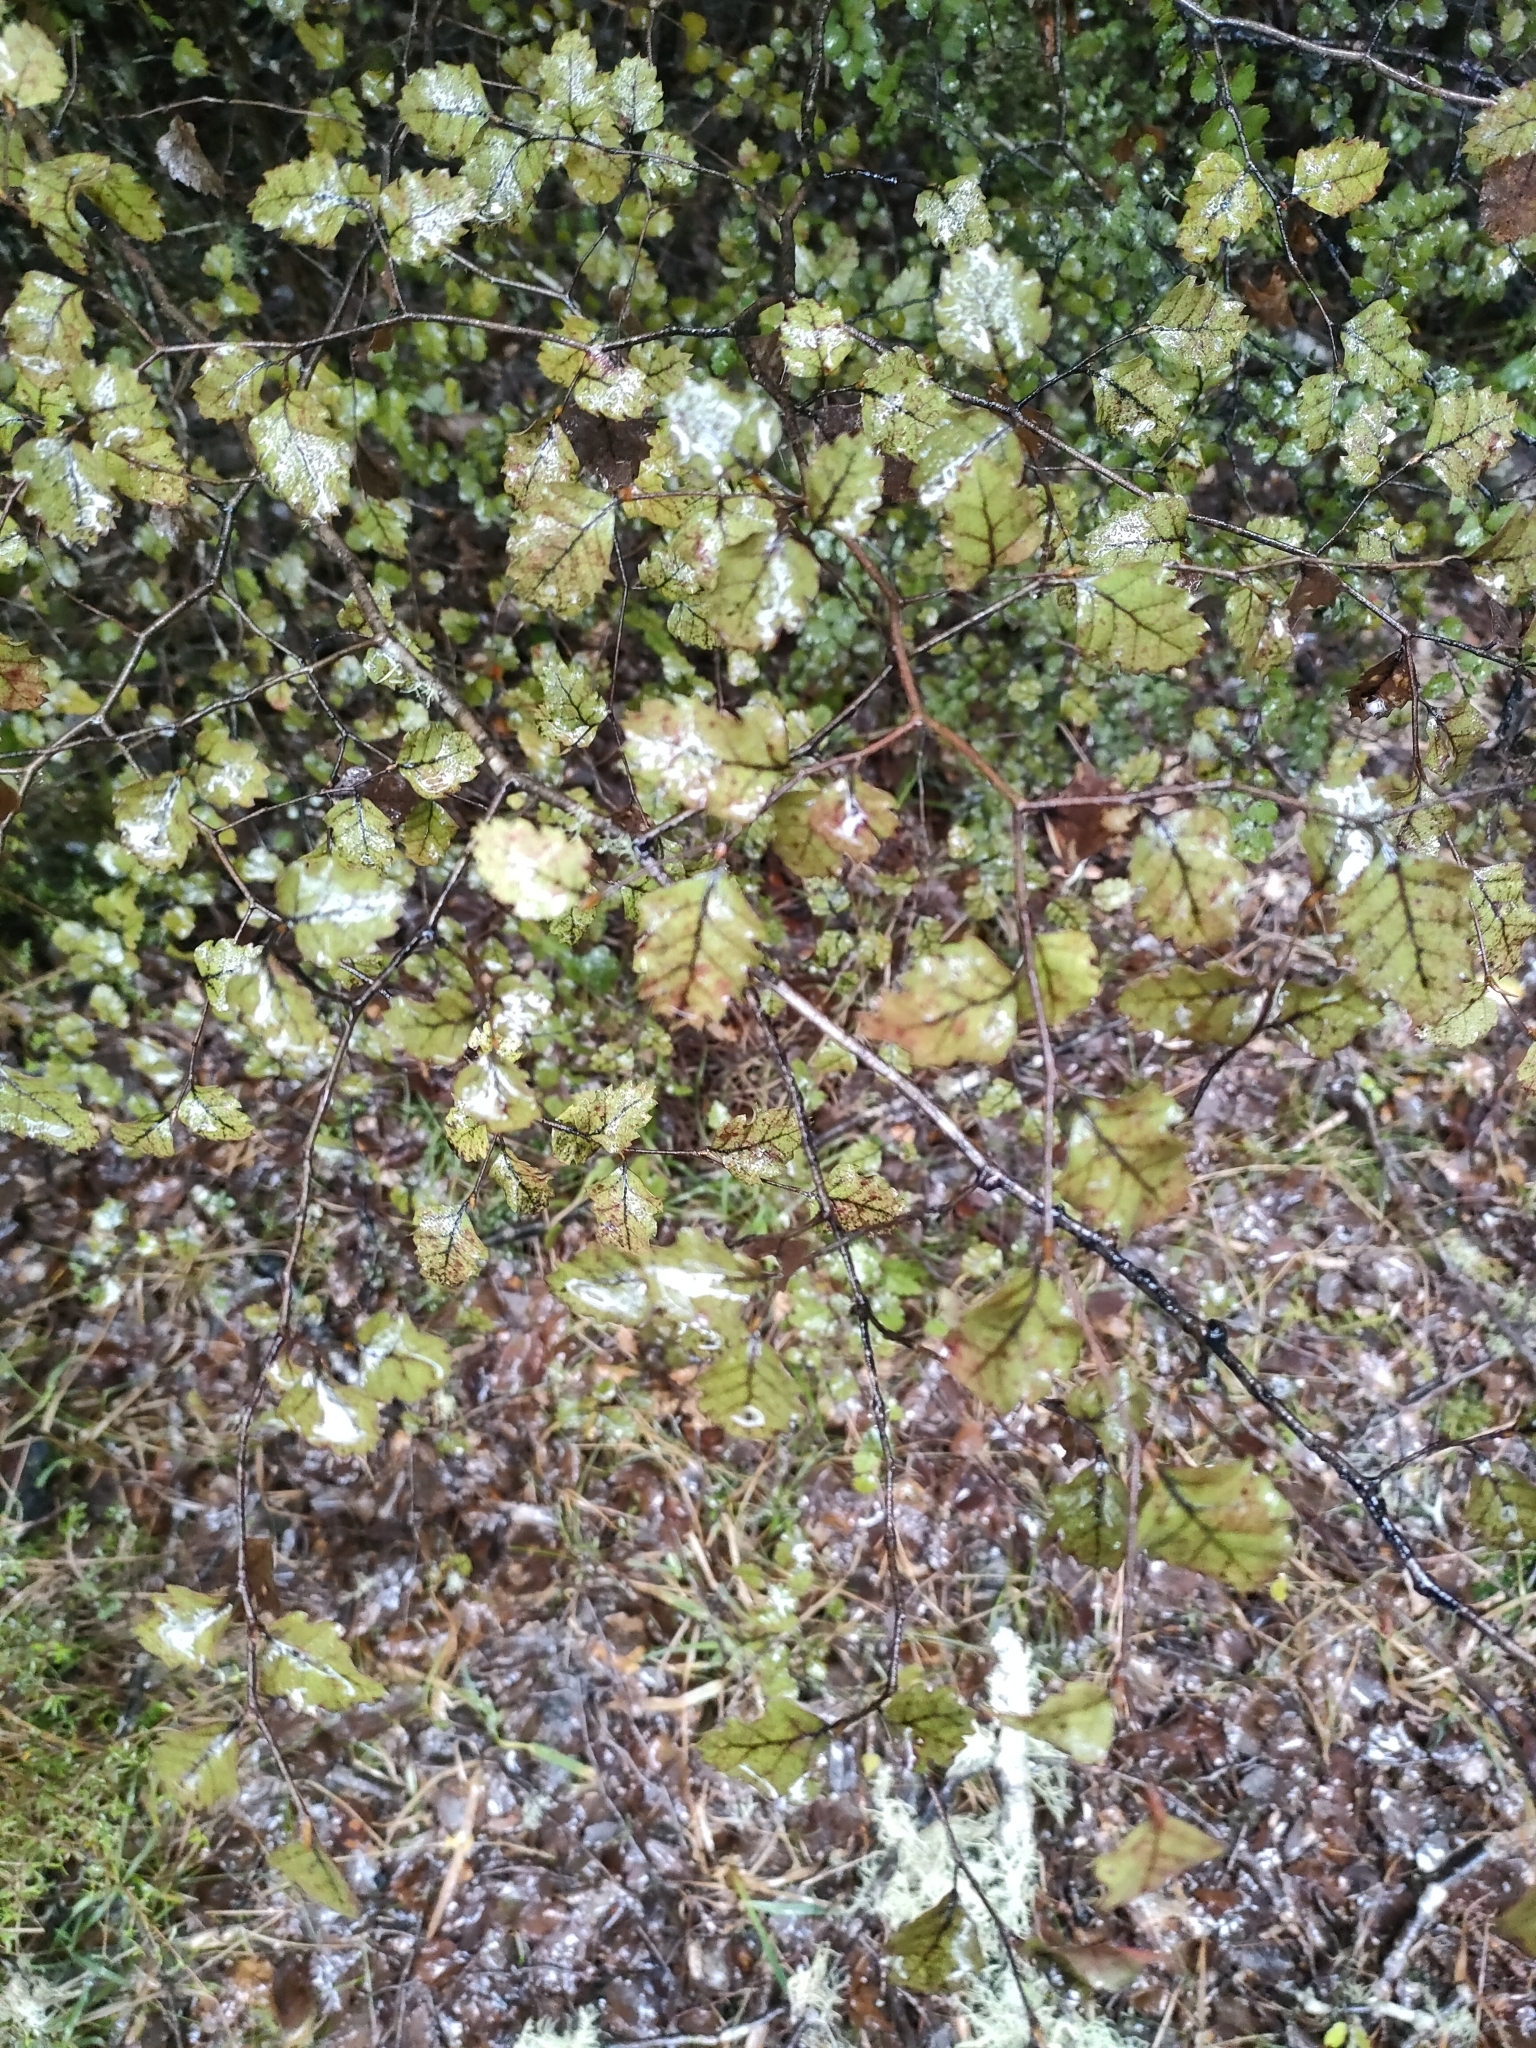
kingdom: Plantae
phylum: Tracheophyta
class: Magnoliopsida
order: Fagales
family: Nothofagaceae
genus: Nothofagus
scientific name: Nothofagus fusca
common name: Red beech
